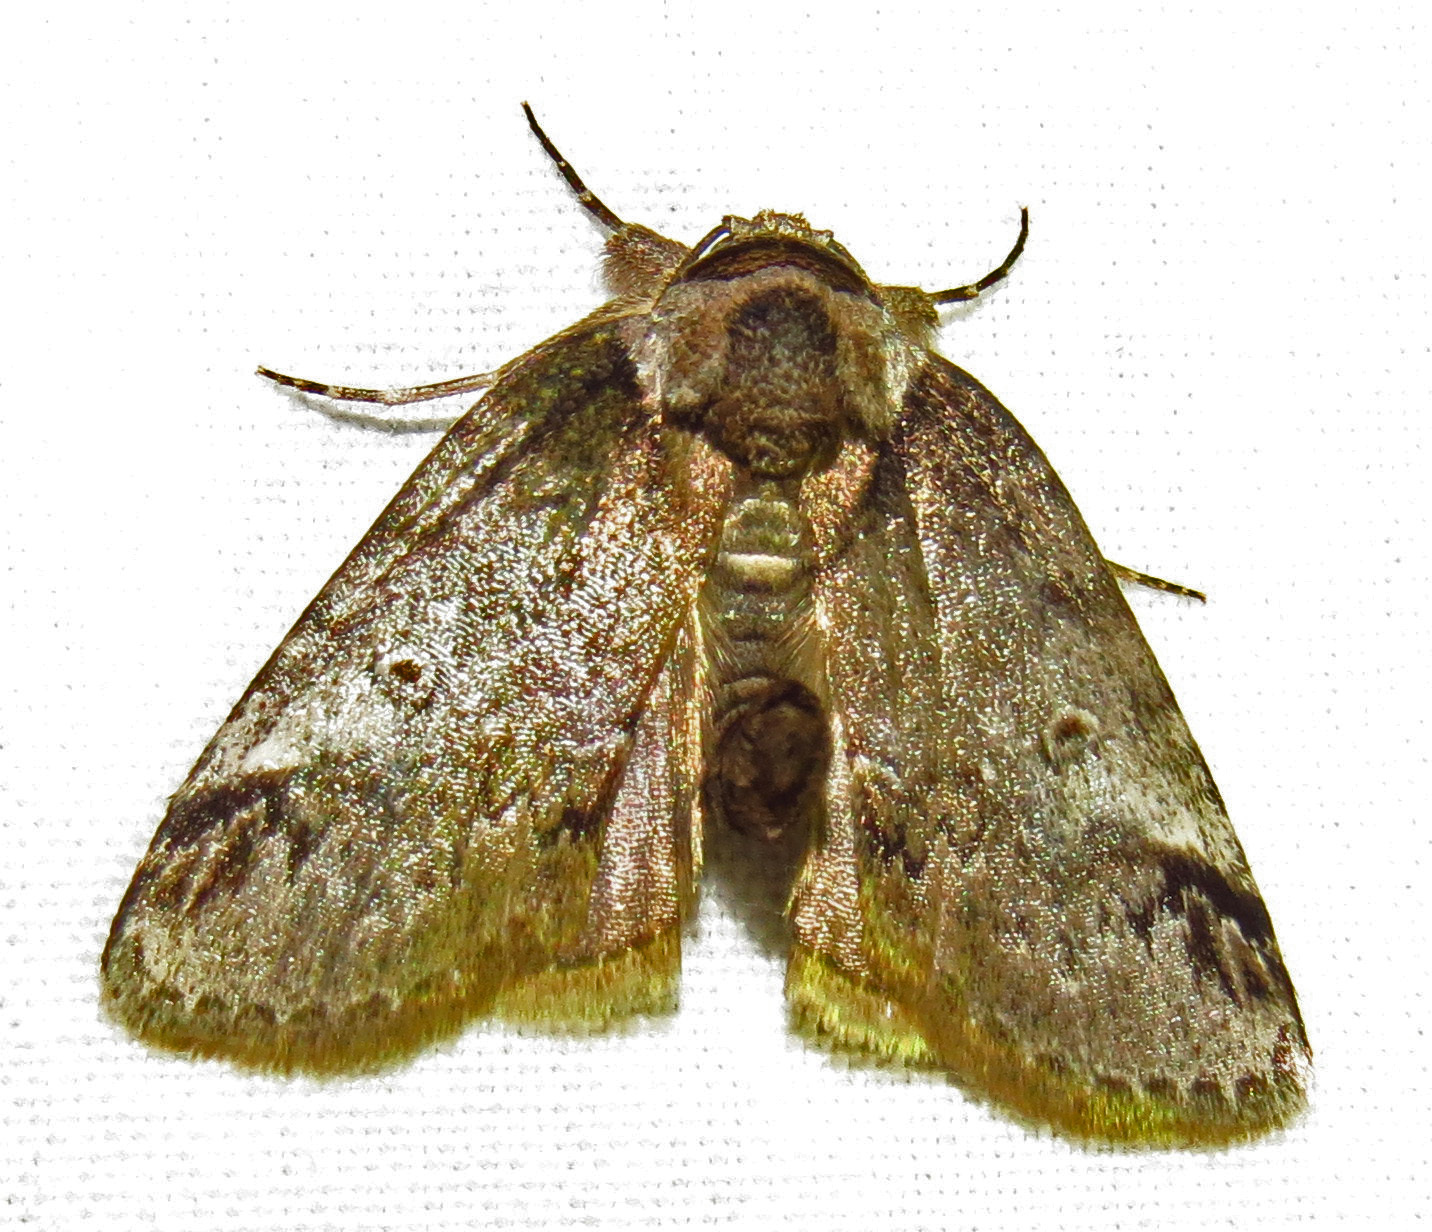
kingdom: Animalia
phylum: Arthropoda
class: Insecta
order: Lepidoptera
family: Nolidae
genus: Baileya
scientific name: Baileya ophthalmica
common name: Eyed baileya moth
